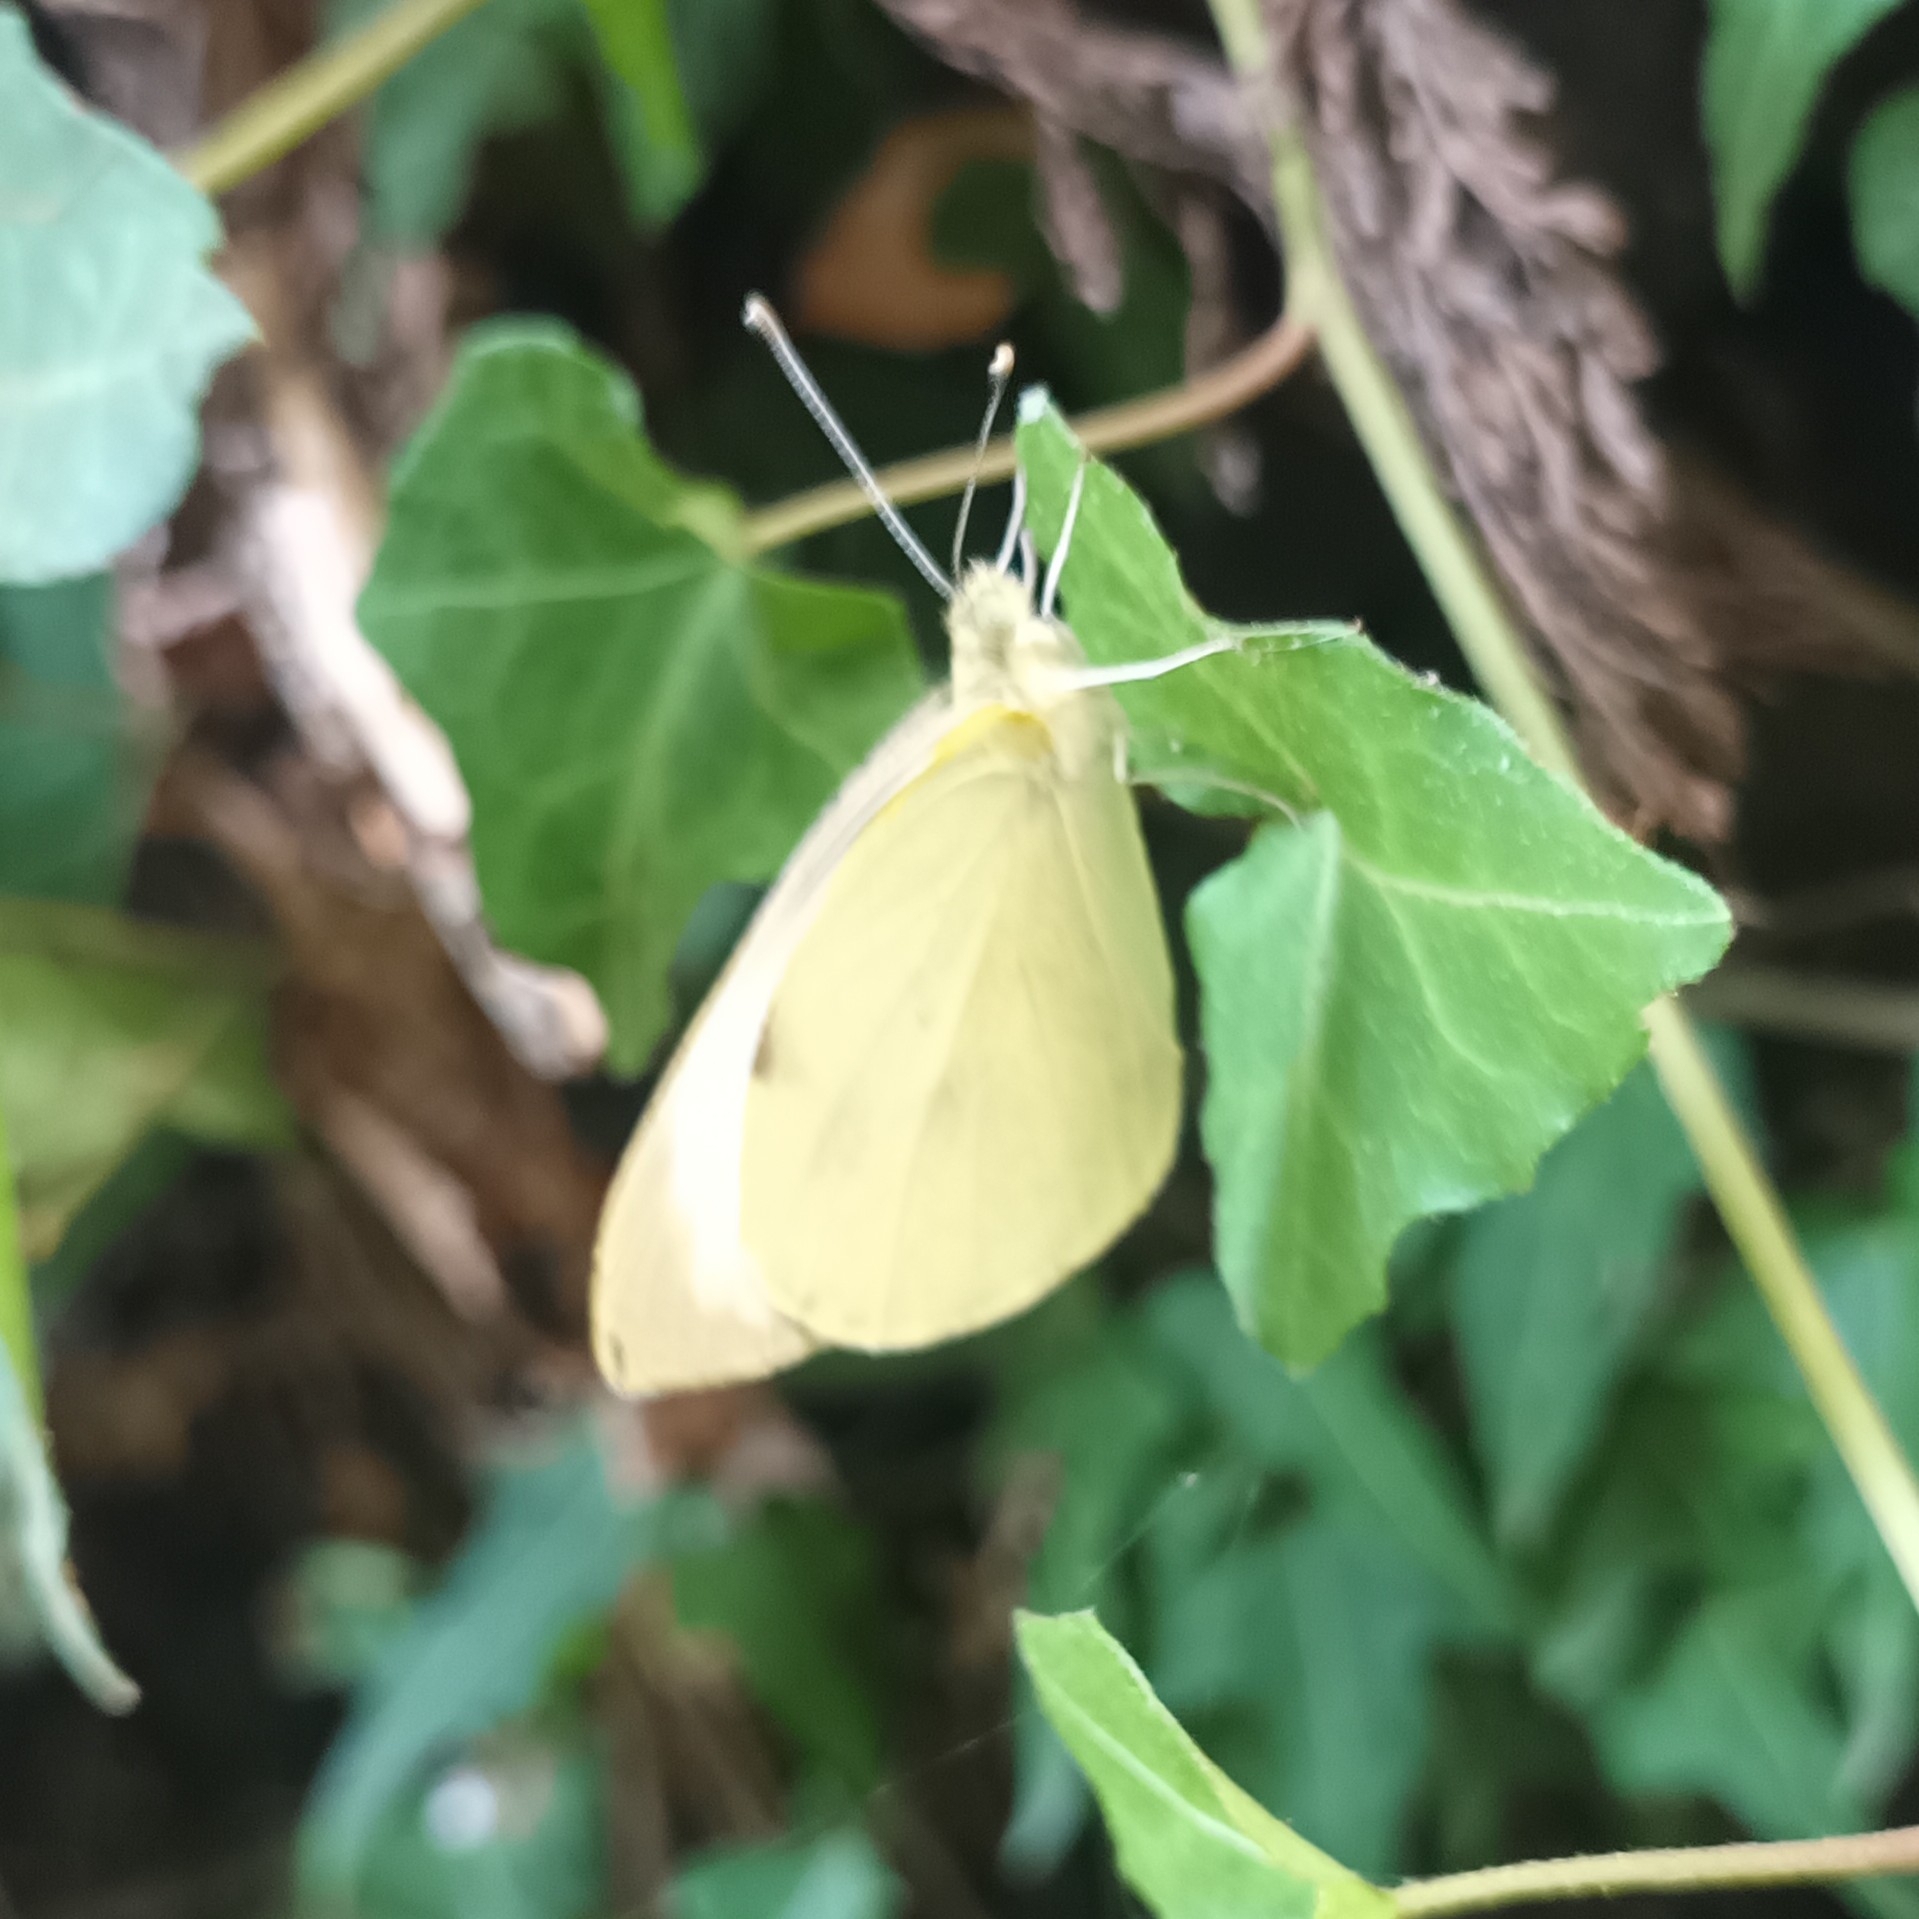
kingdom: Animalia
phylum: Arthropoda
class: Insecta
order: Lepidoptera
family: Pieridae
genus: Pieris
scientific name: Pieris brassicae
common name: Large white
